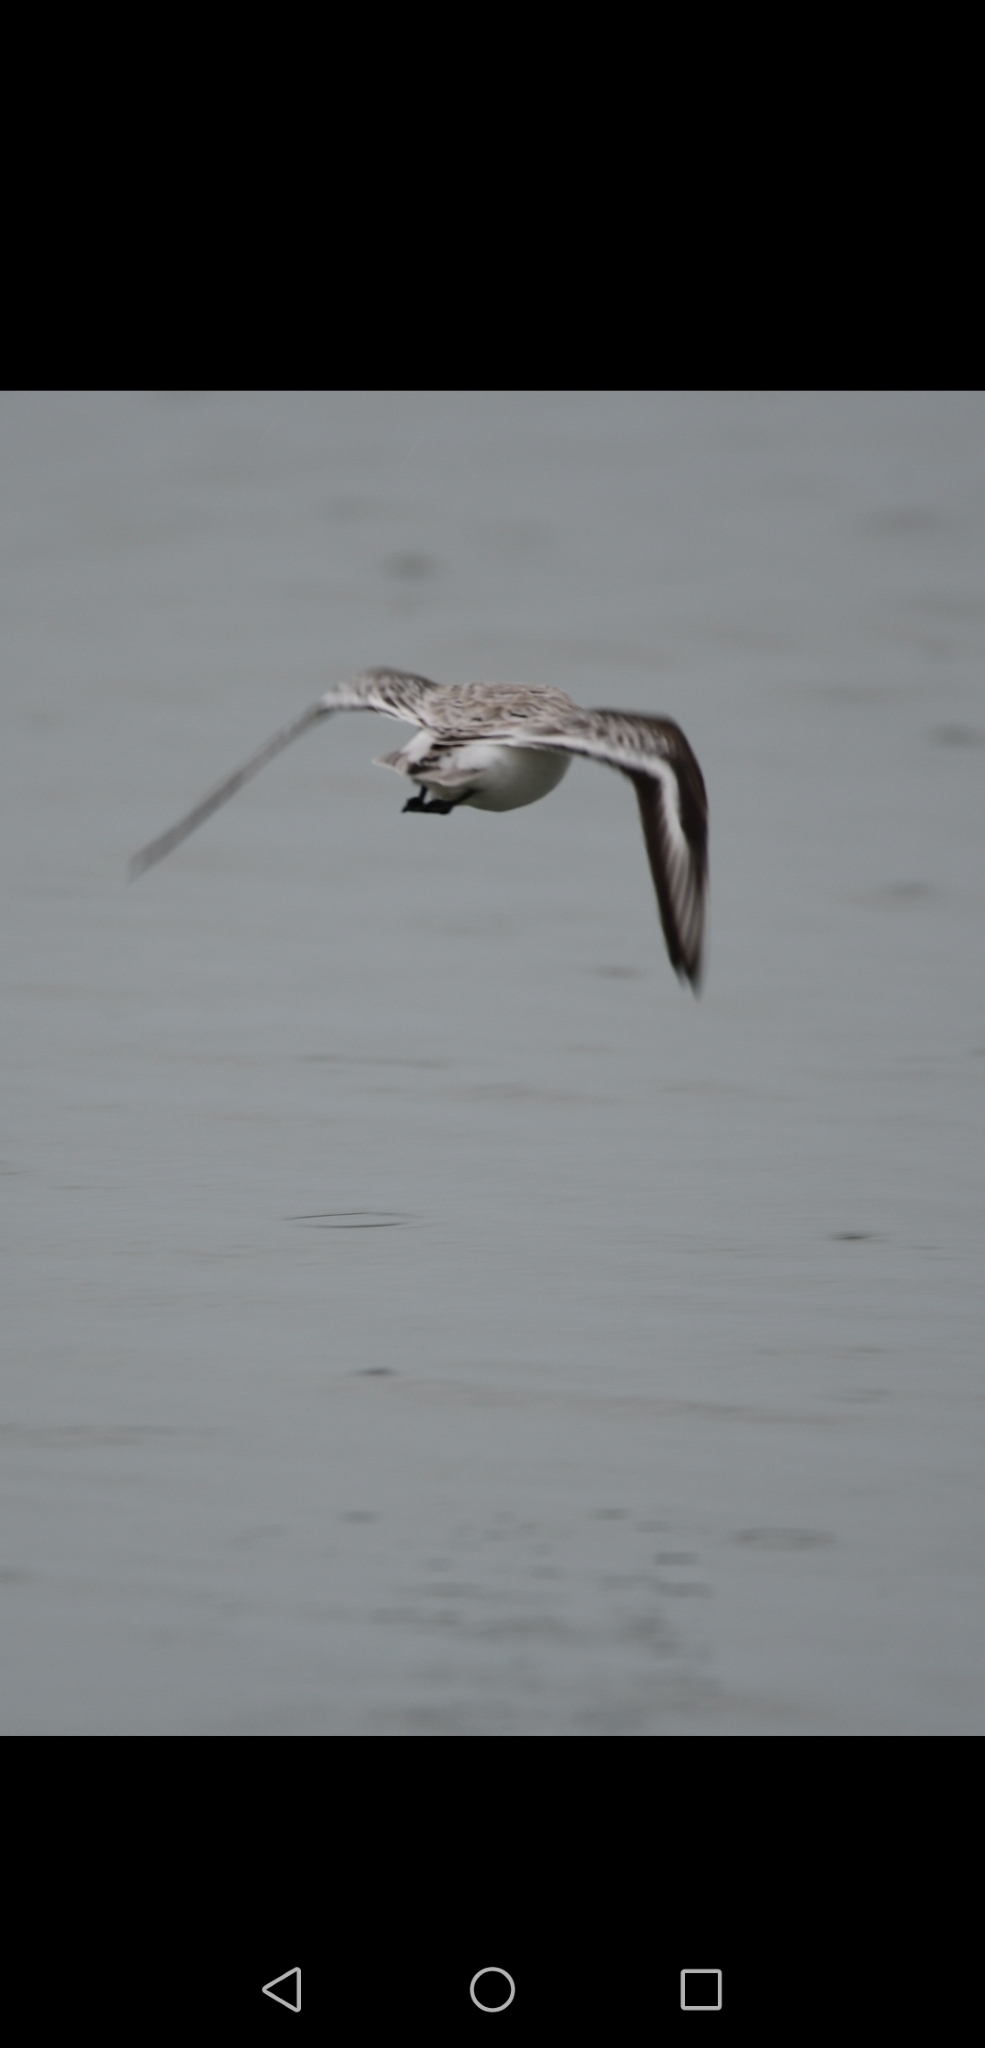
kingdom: Animalia
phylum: Chordata
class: Aves
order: Charadriiformes
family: Scolopacidae
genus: Actitis
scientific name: Actitis macularius
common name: Spotted sandpiper
